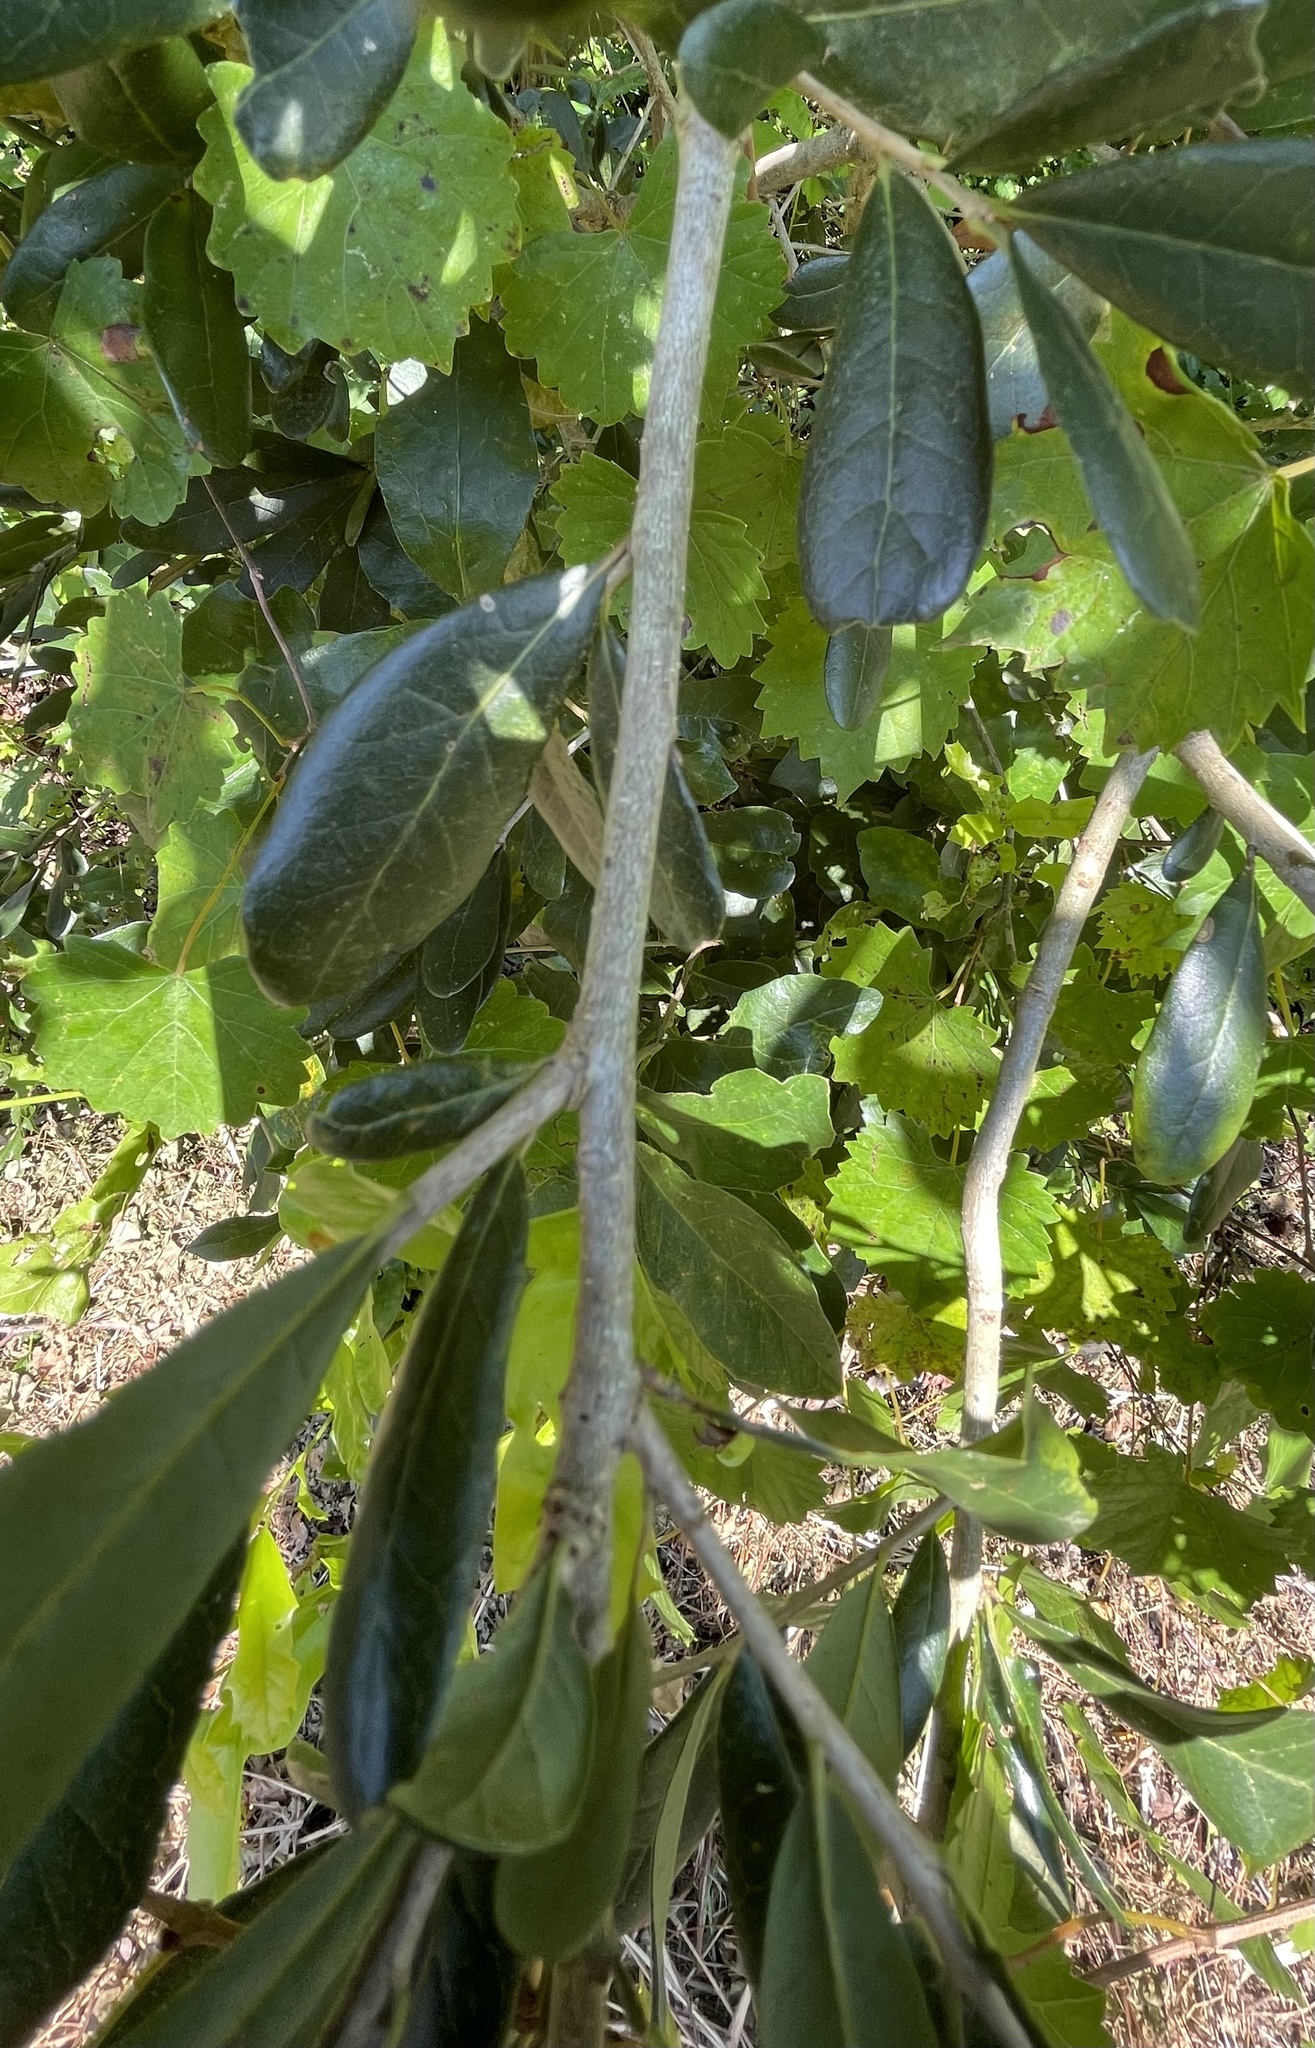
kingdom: Plantae
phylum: Tracheophyta
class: Magnoliopsida
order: Fagales
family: Fagaceae
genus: Quercus
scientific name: Quercus virginiana
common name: Southern live oak
